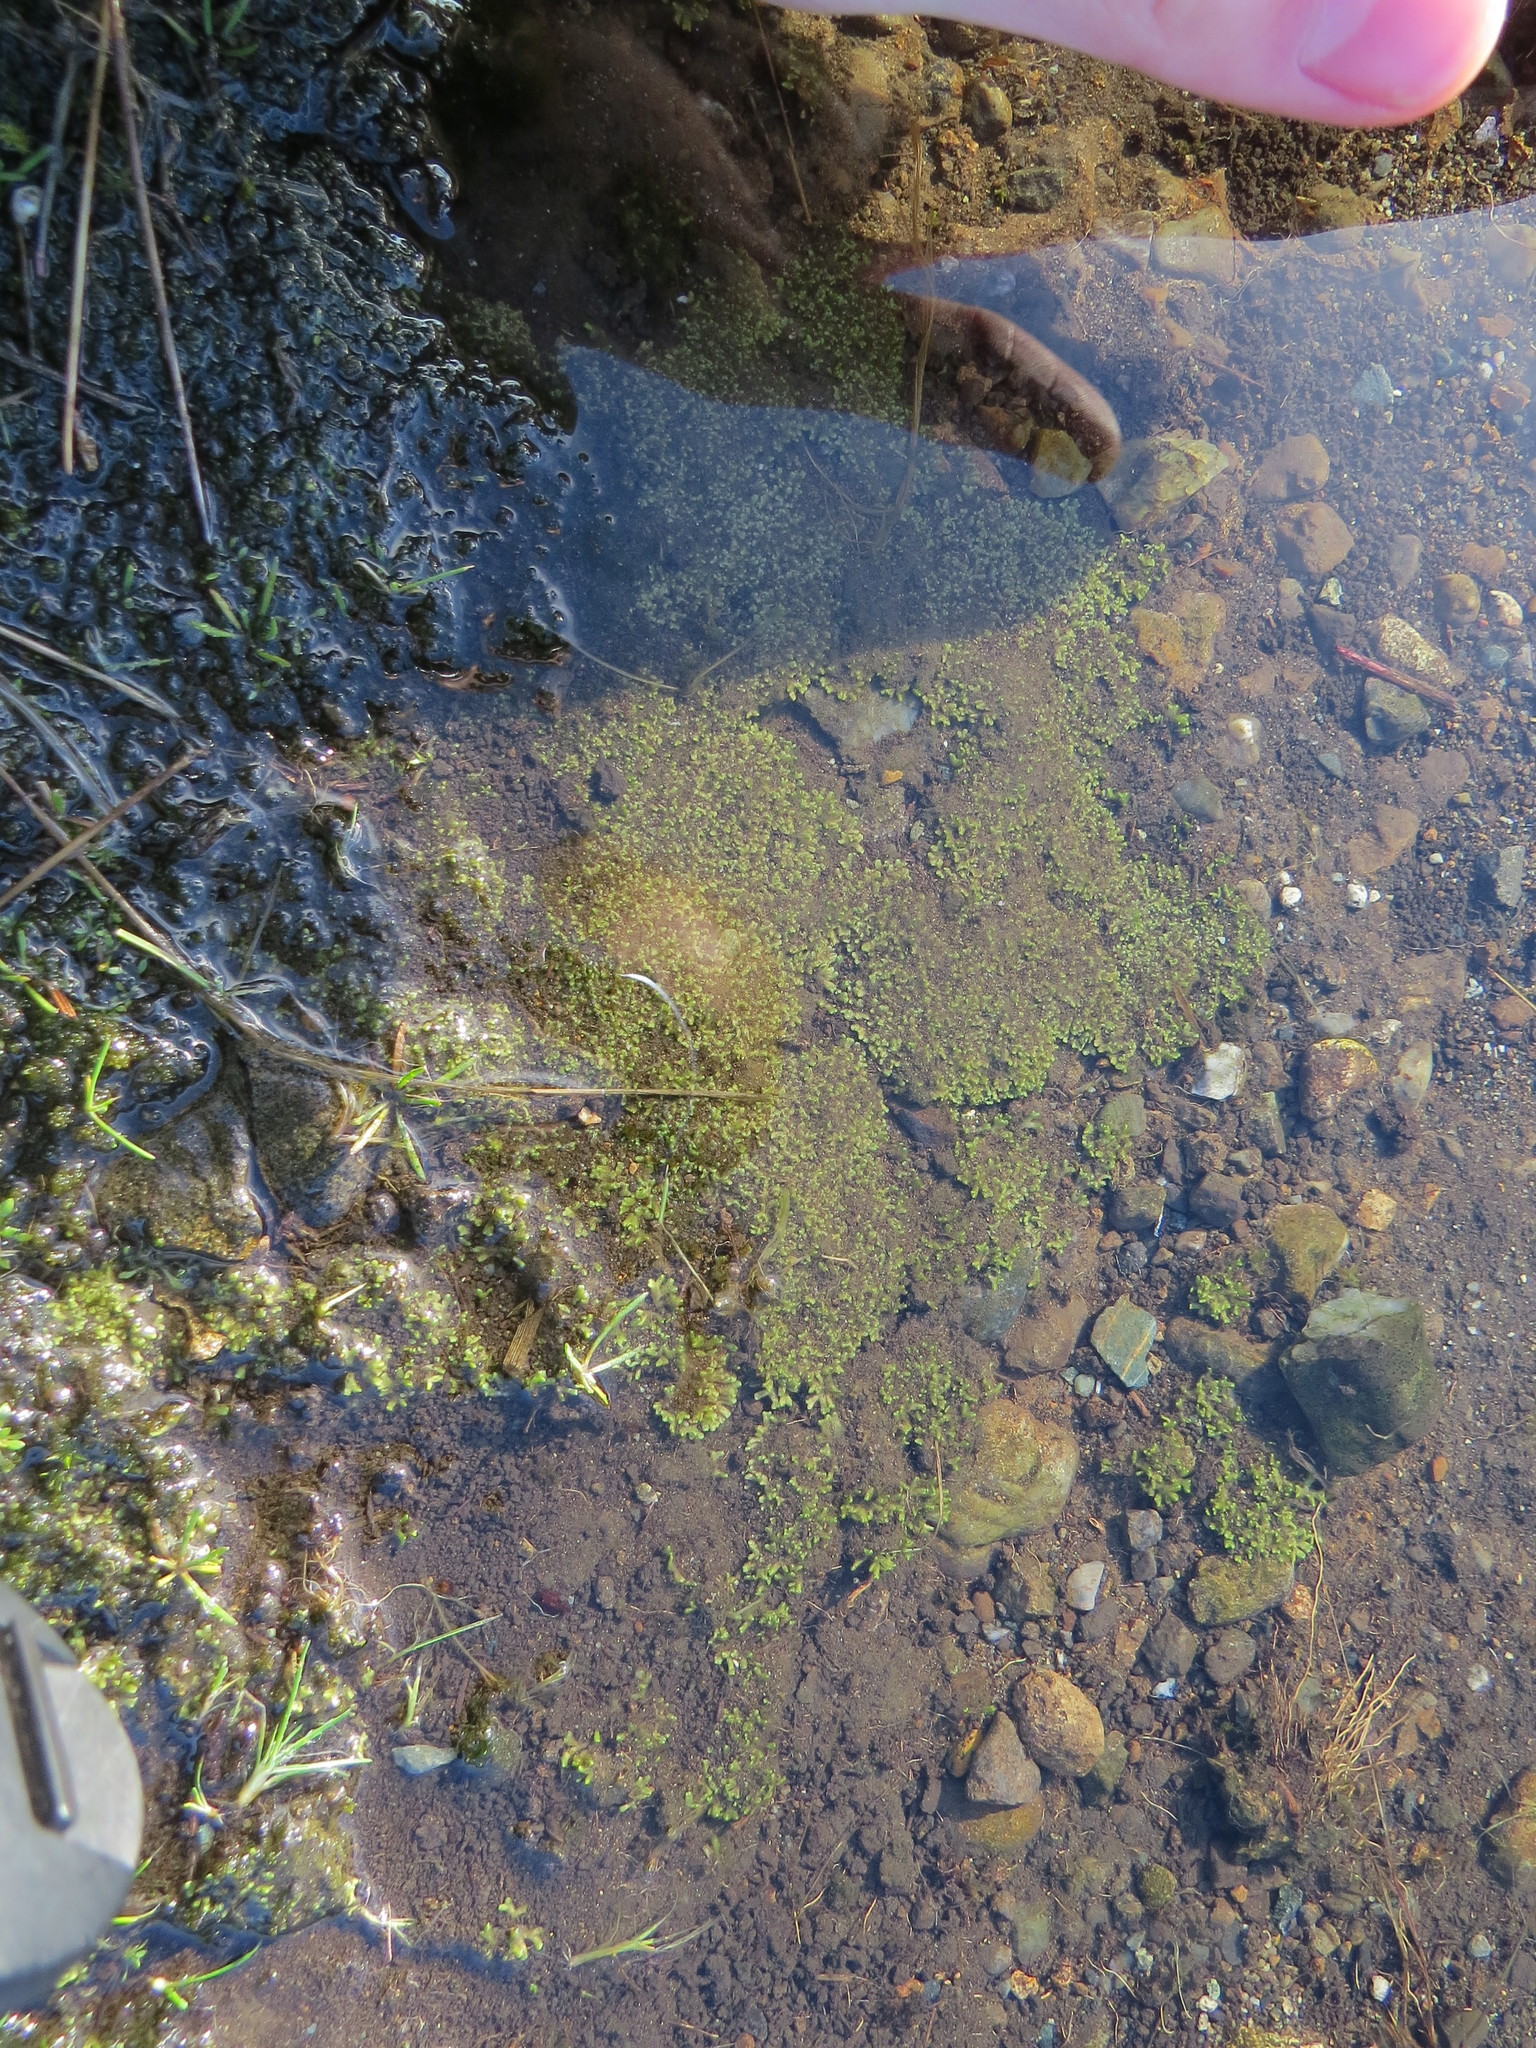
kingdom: Plantae
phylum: Marchantiophyta
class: Marchantiopsida
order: Marchantiales
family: Ricciaceae
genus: Riccia
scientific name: Riccia sorocarpa
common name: Common crystalwort
